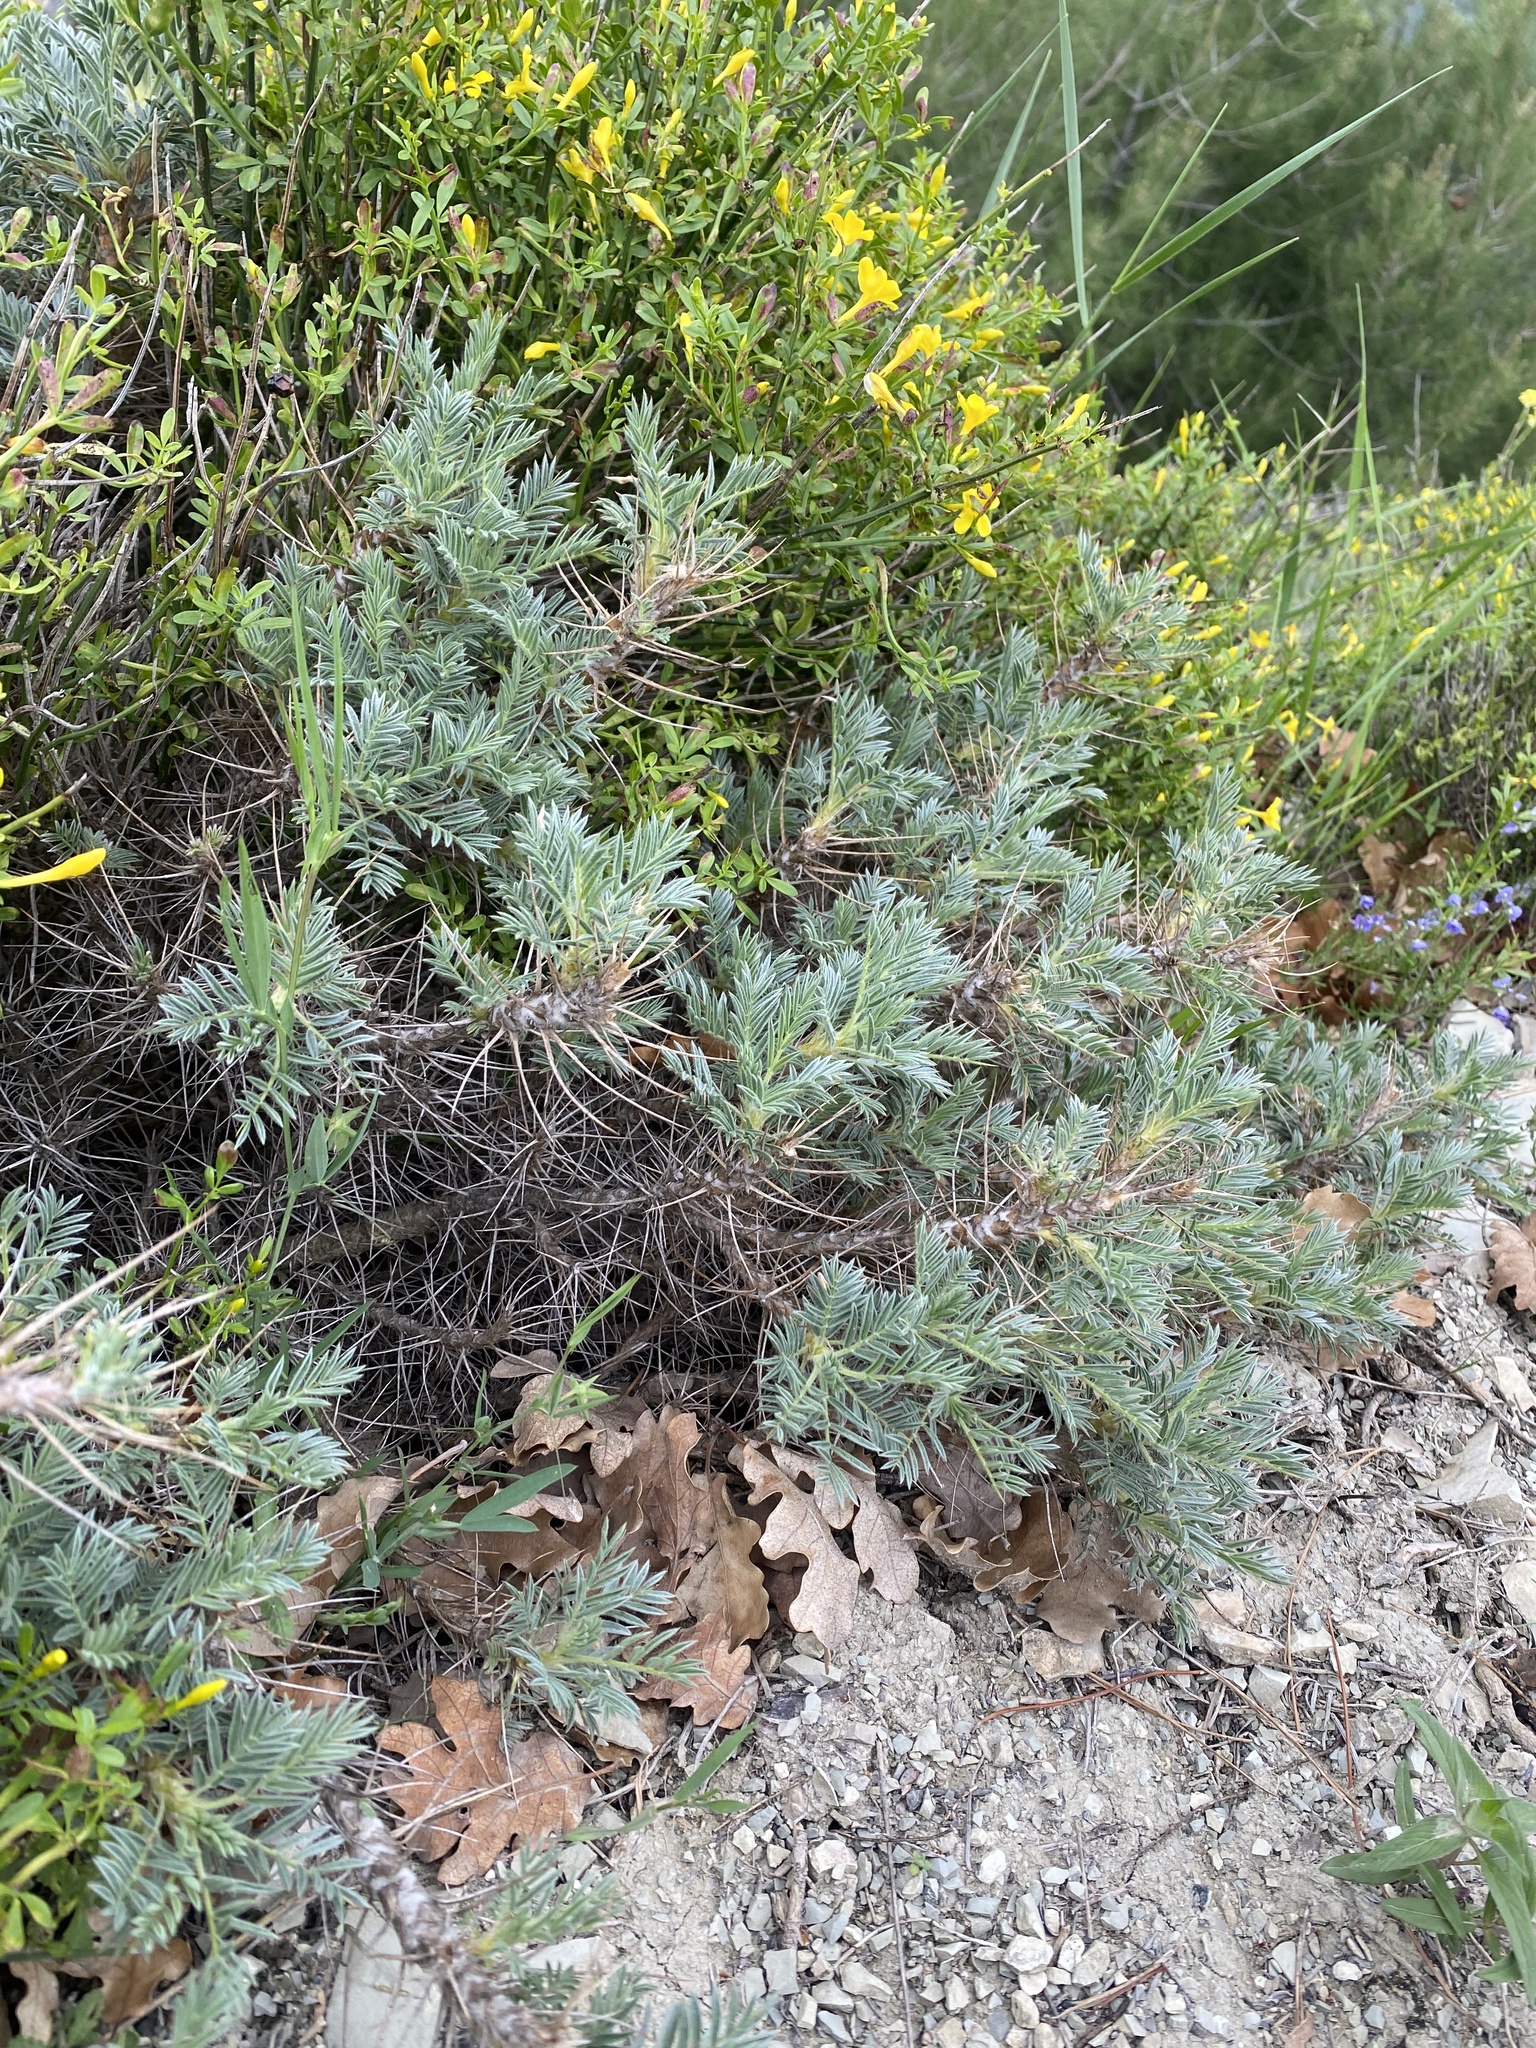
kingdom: Plantae
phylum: Tracheophyta
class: Magnoliopsida
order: Fabales
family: Fabaceae
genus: Astragalus
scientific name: Astragalus arnacanthoides
